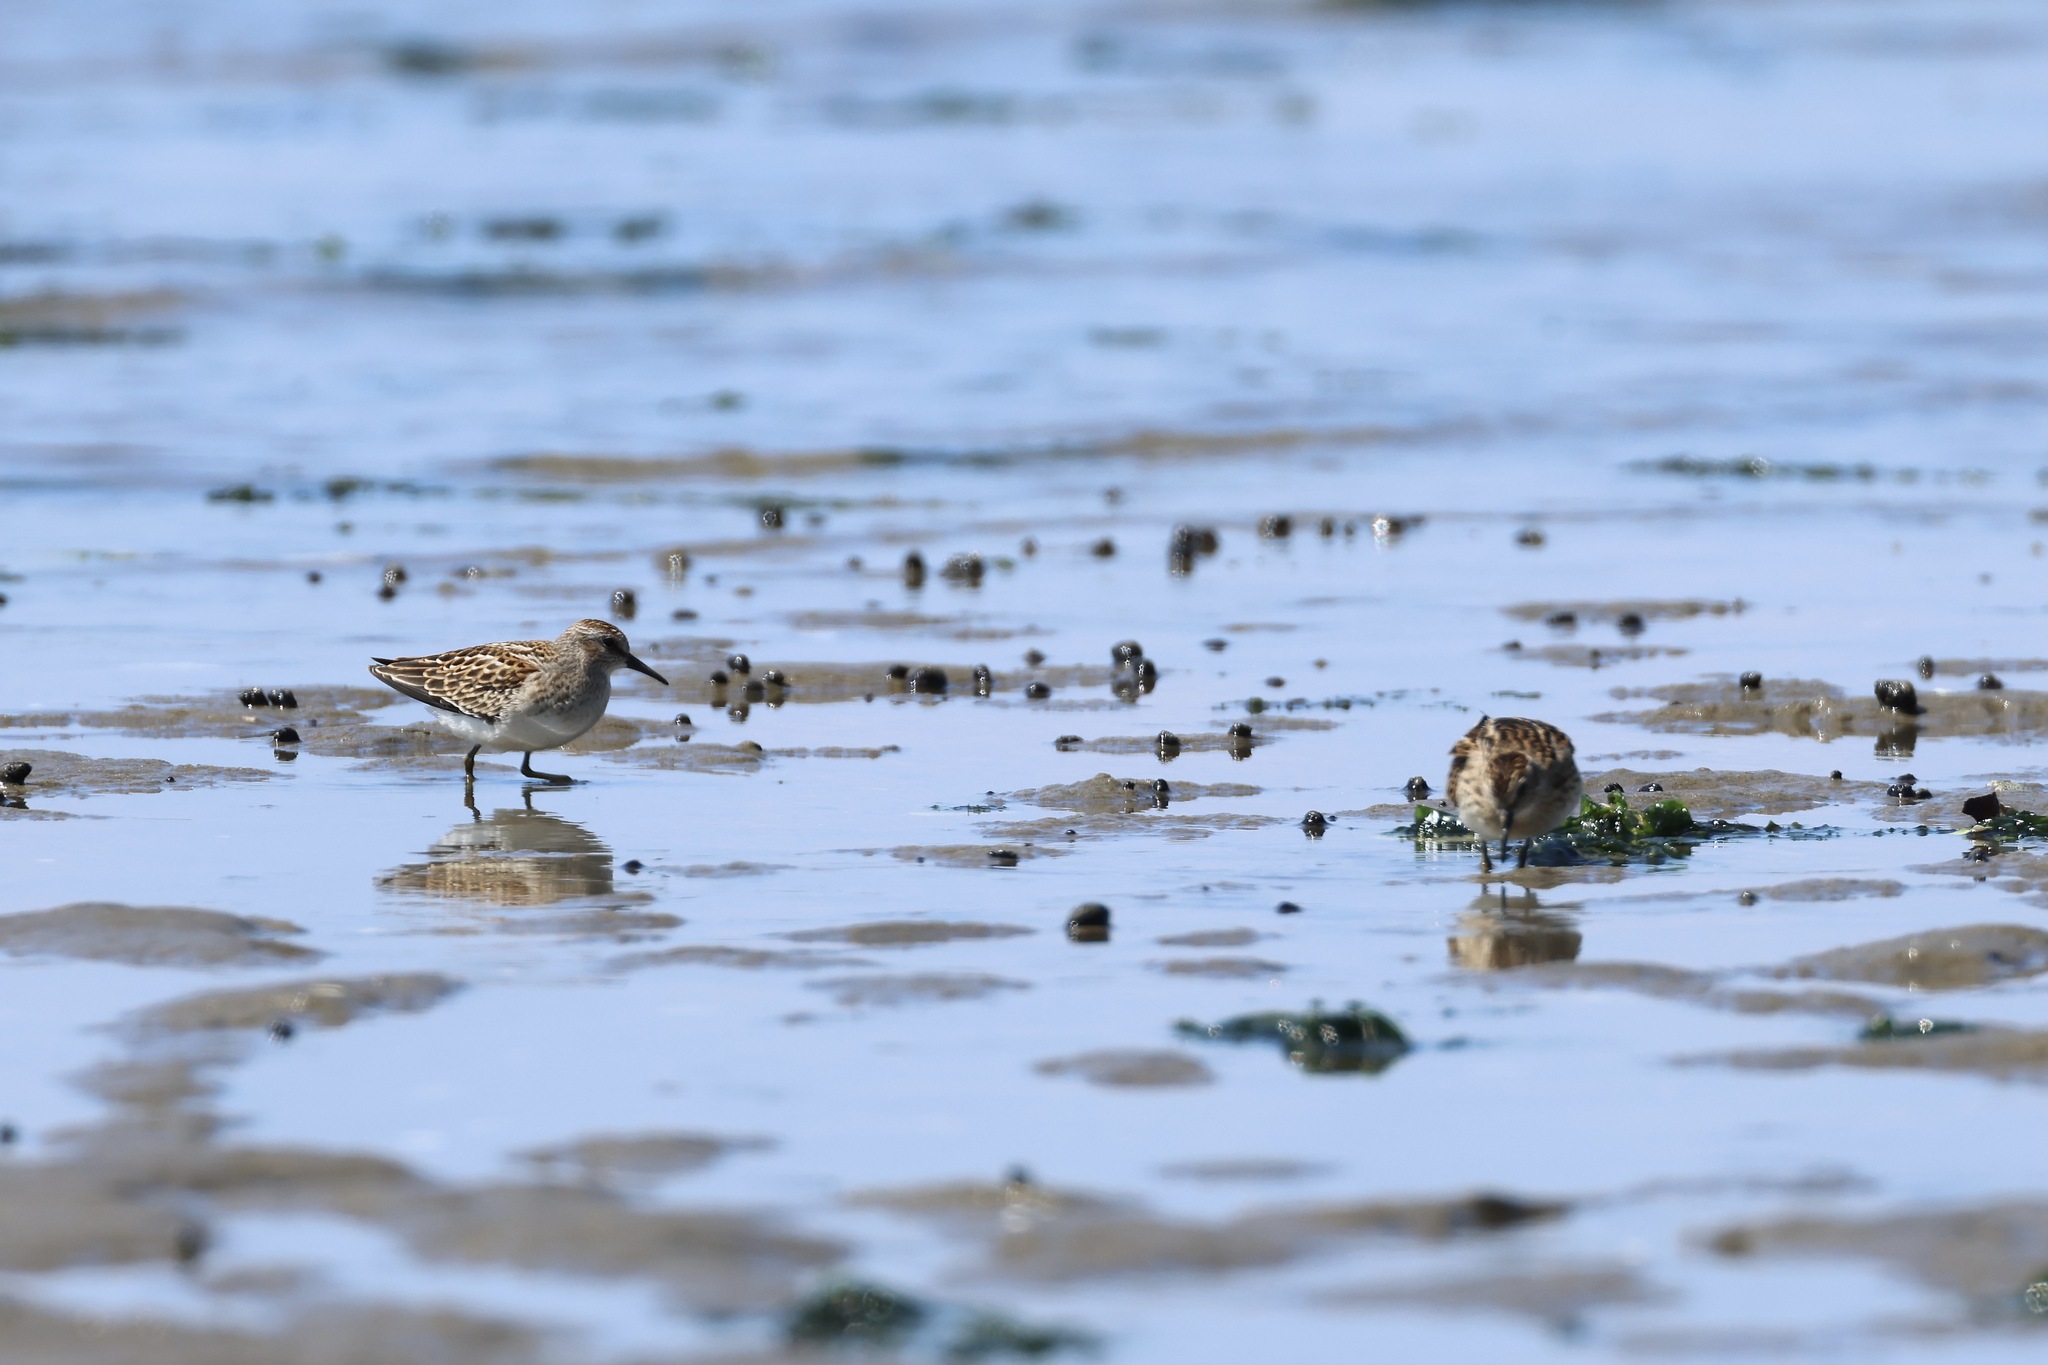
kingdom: Animalia
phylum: Chordata
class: Aves
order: Charadriiformes
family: Scolopacidae
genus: Calidris
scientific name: Calidris minutilla
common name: Least sandpiper
